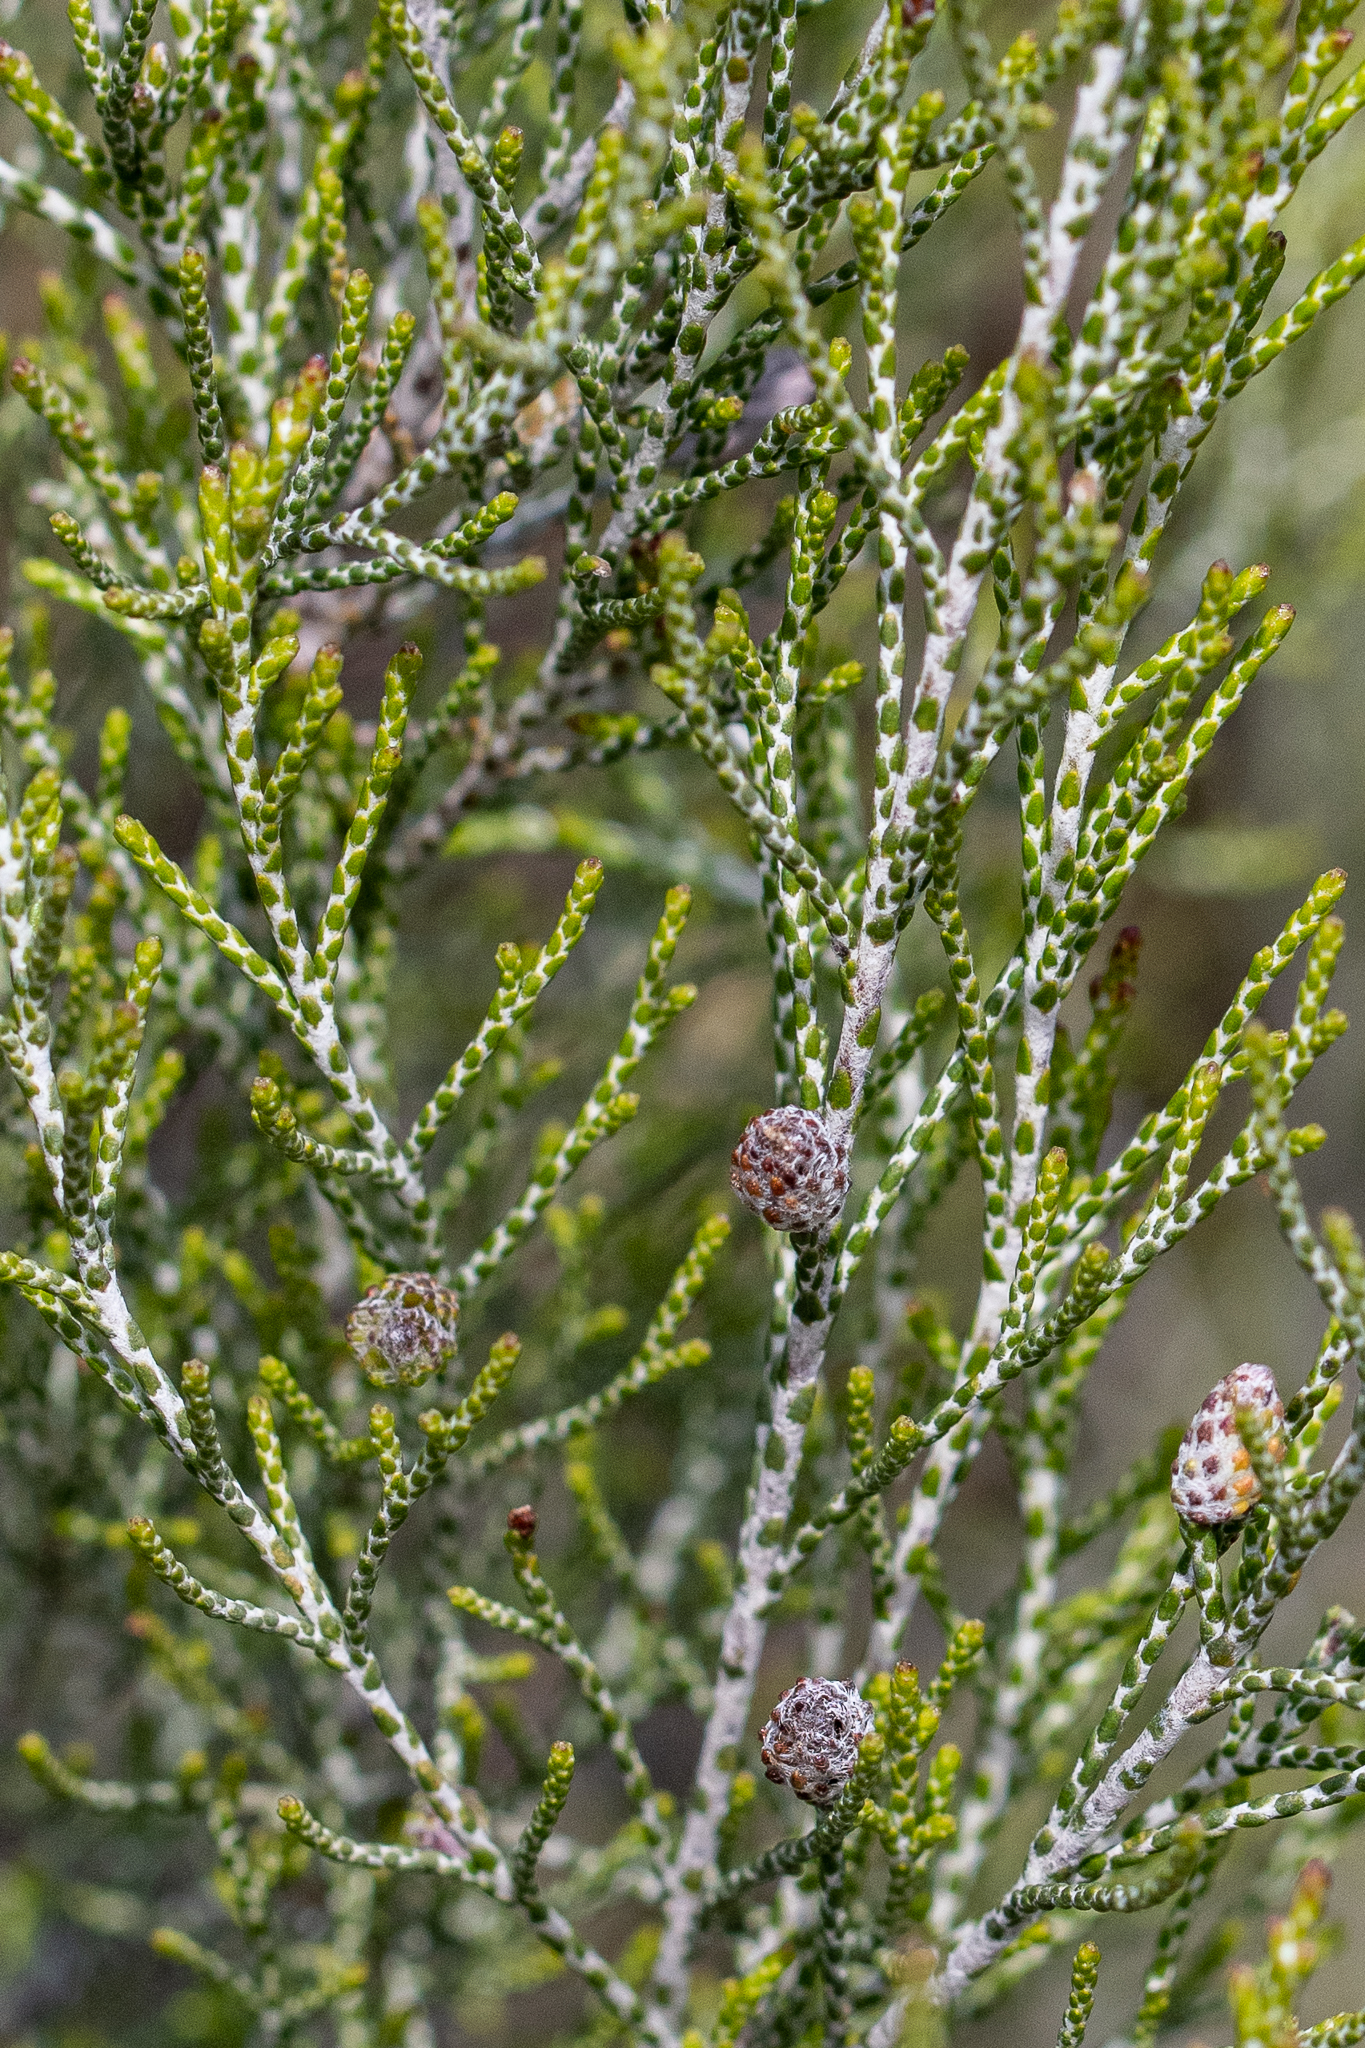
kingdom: Plantae
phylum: Tracheophyta
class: Magnoliopsida
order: Asterales
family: Asteraceae
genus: Dicerothamnus
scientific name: Dicerothamnus rhinocerotis
